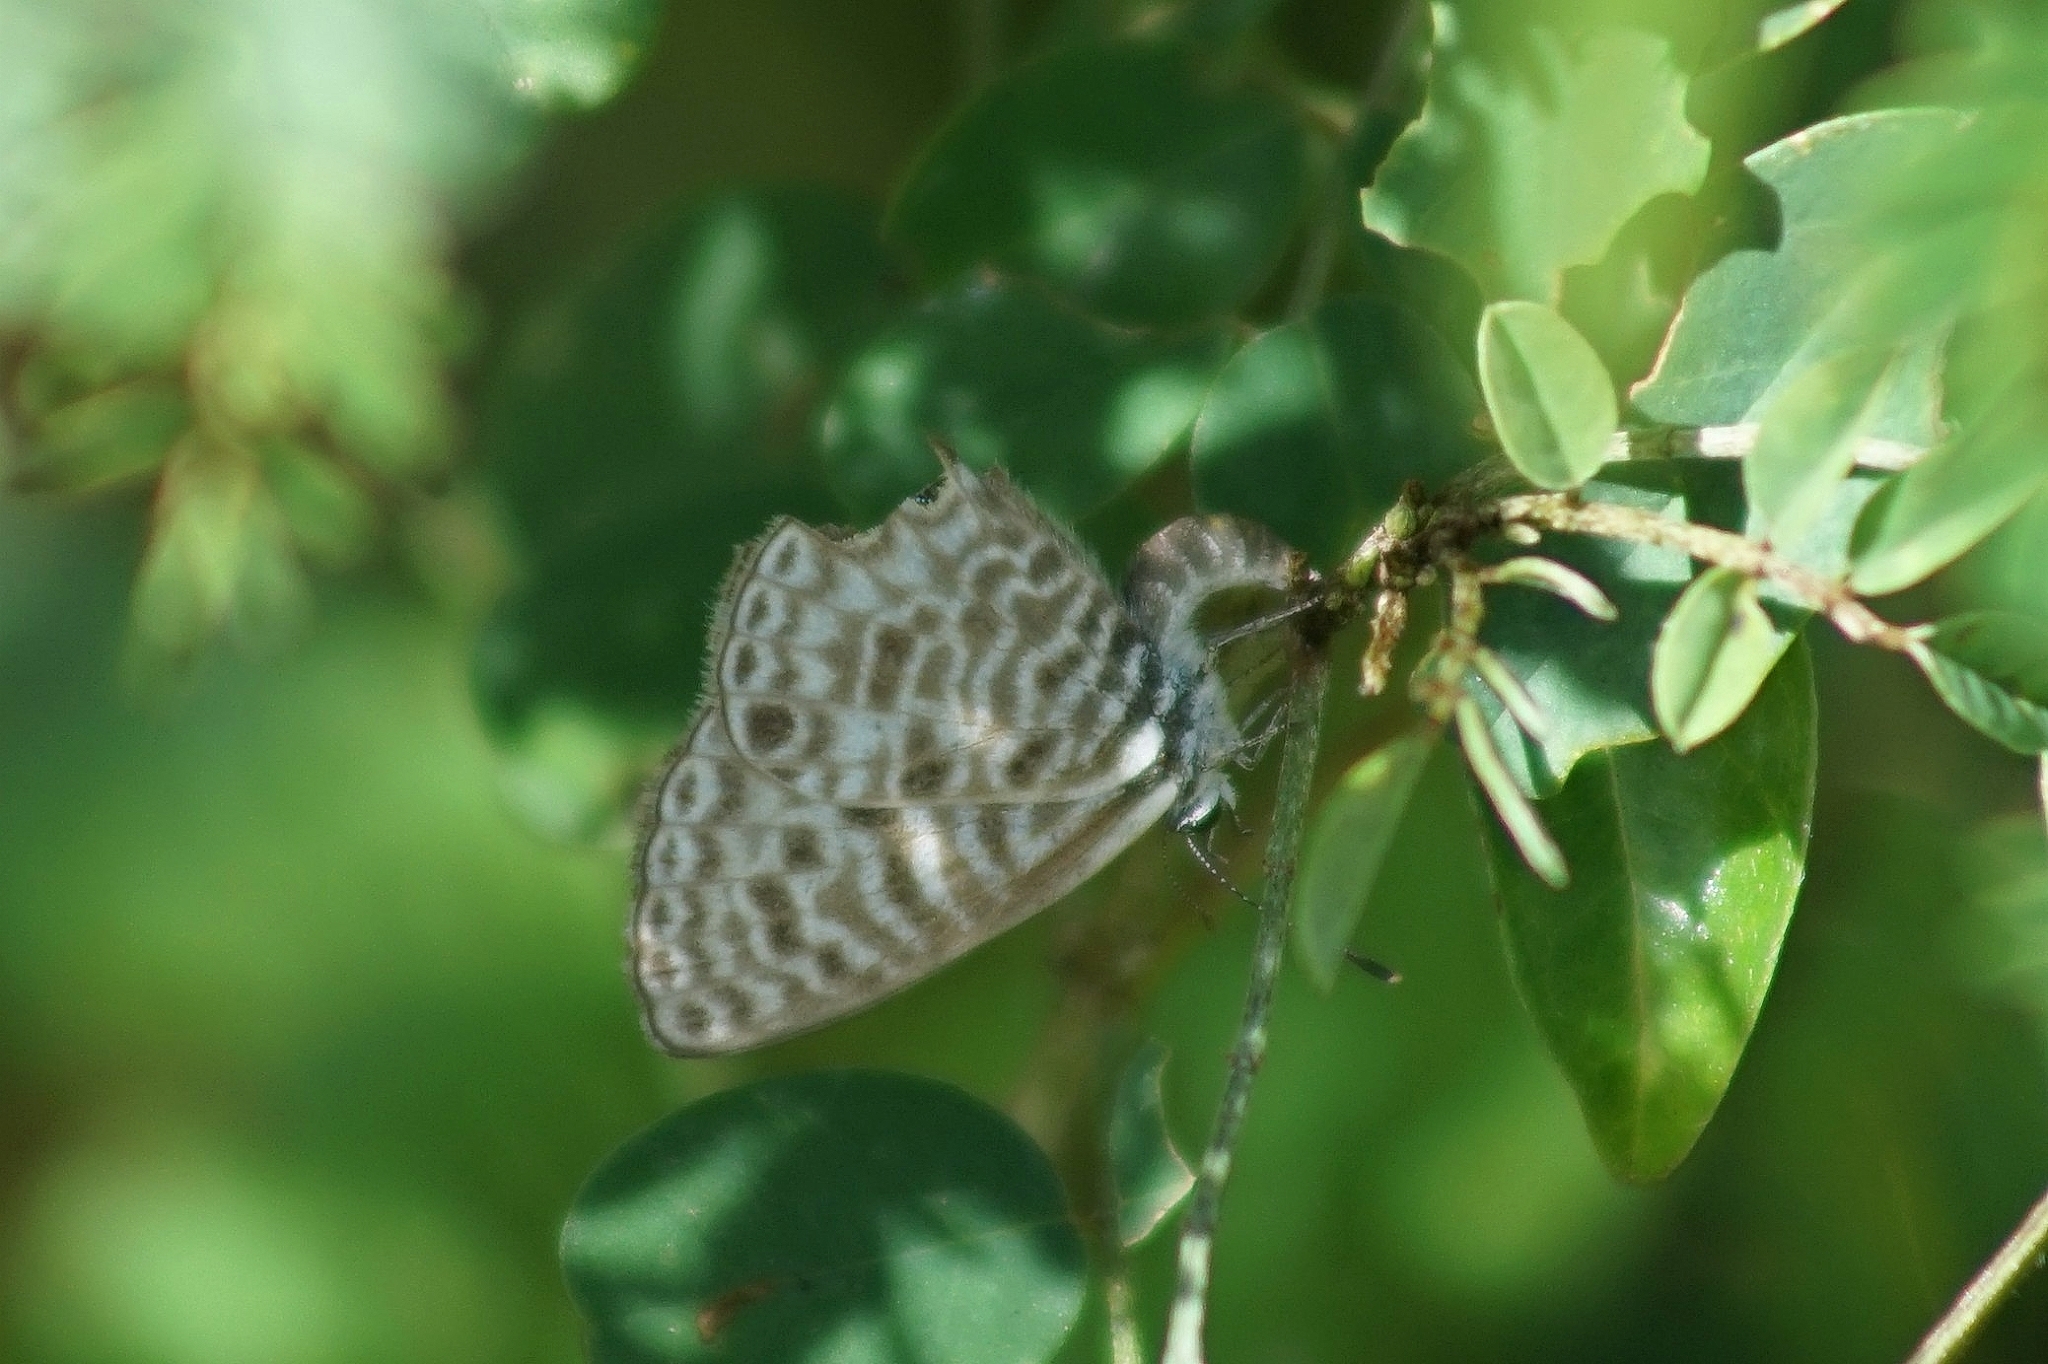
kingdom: Animalia
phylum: Arthropoda
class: Insecta
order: Lepidoptera
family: Lycaenidae
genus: Leptotes
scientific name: Leptotes pirithous
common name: Lang's short-tailed blue
